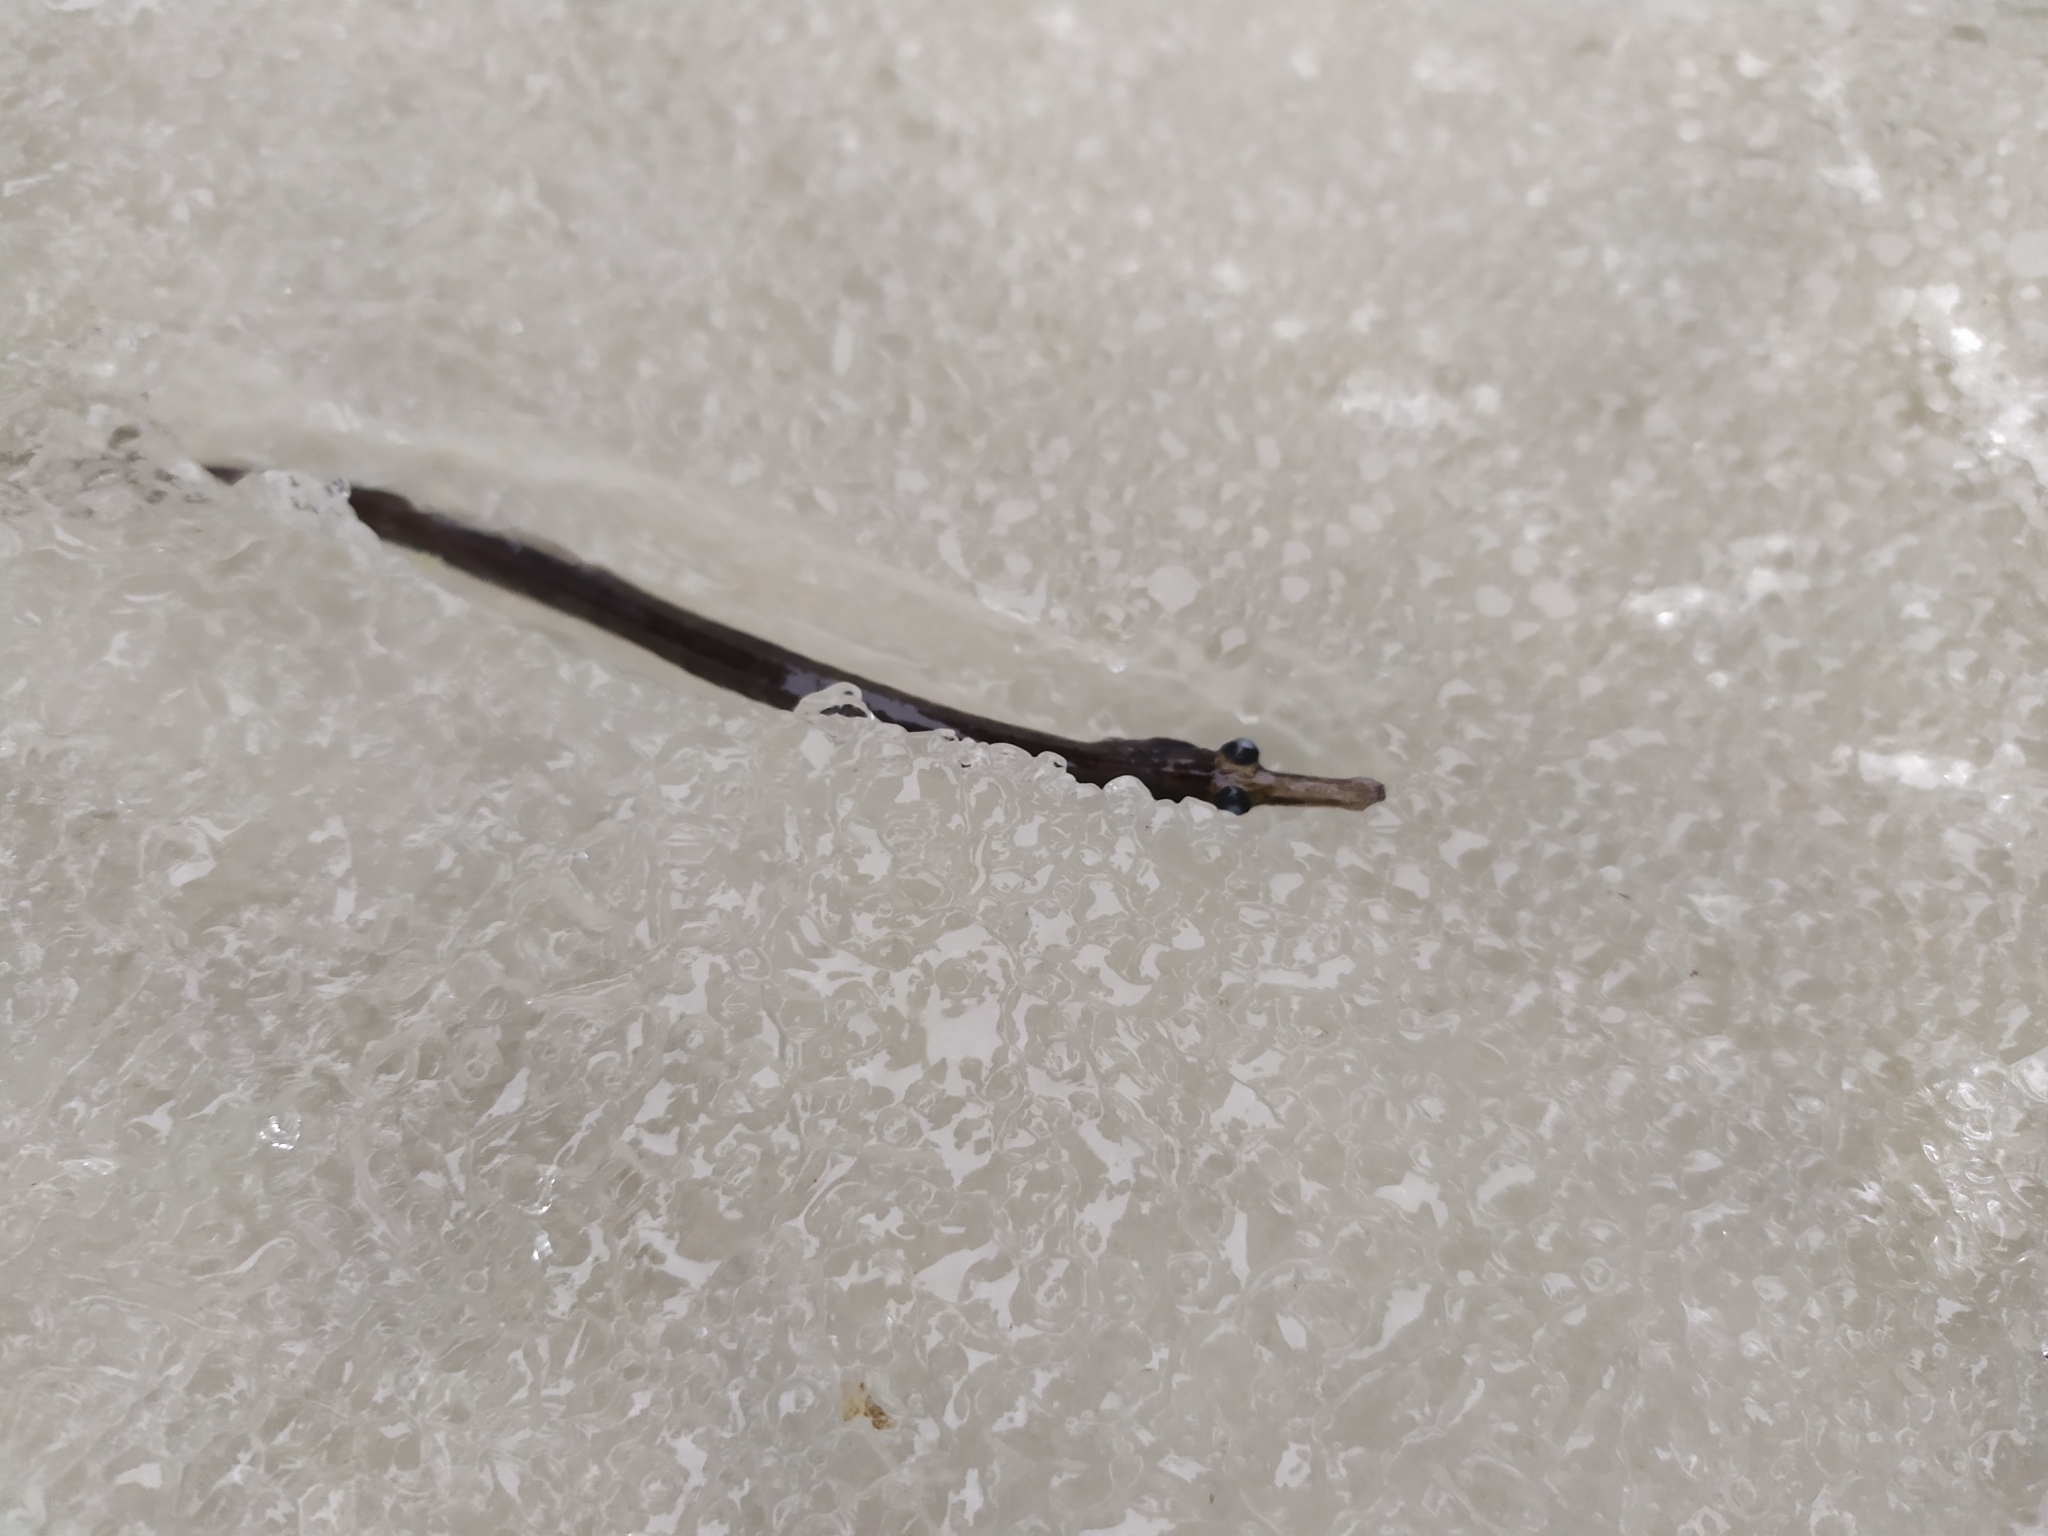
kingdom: Animalia
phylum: Chordata
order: Syngnathiformes
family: Syngnathidae
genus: Syngnathus
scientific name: Syngnathus abaster
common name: Black-striped pipefish
